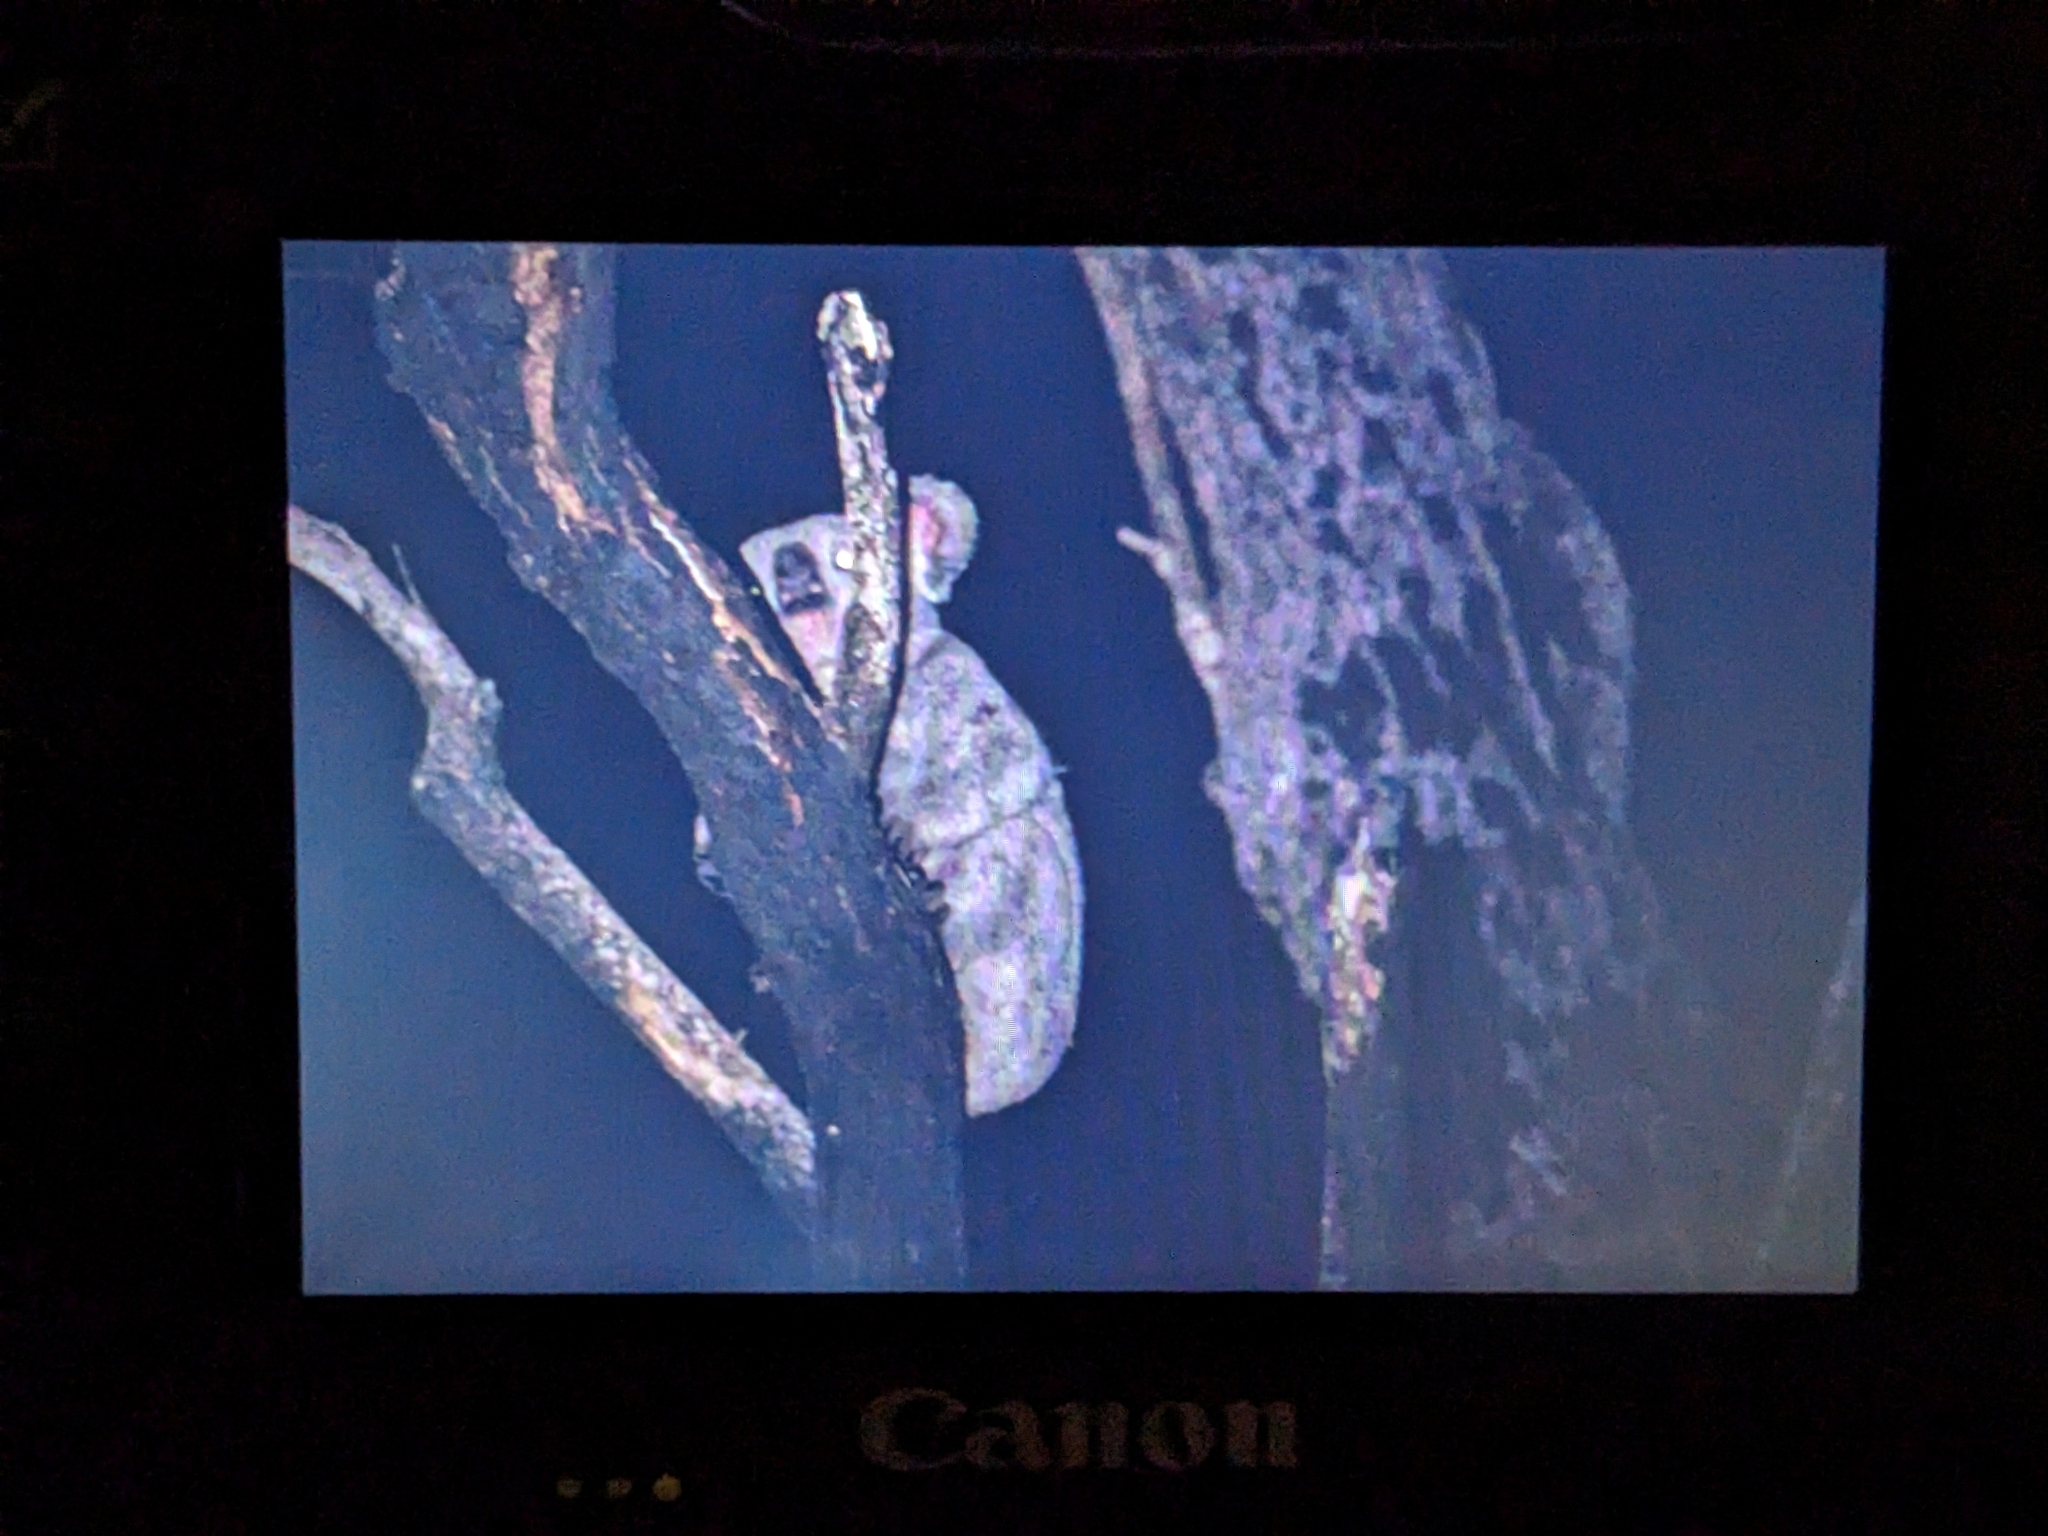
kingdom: Animalia
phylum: Chordata
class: Mammalia
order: Diprotodontia
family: Phascolarctidae
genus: Phascolarctos
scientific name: Phascolarctos cinereus
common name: Koala
